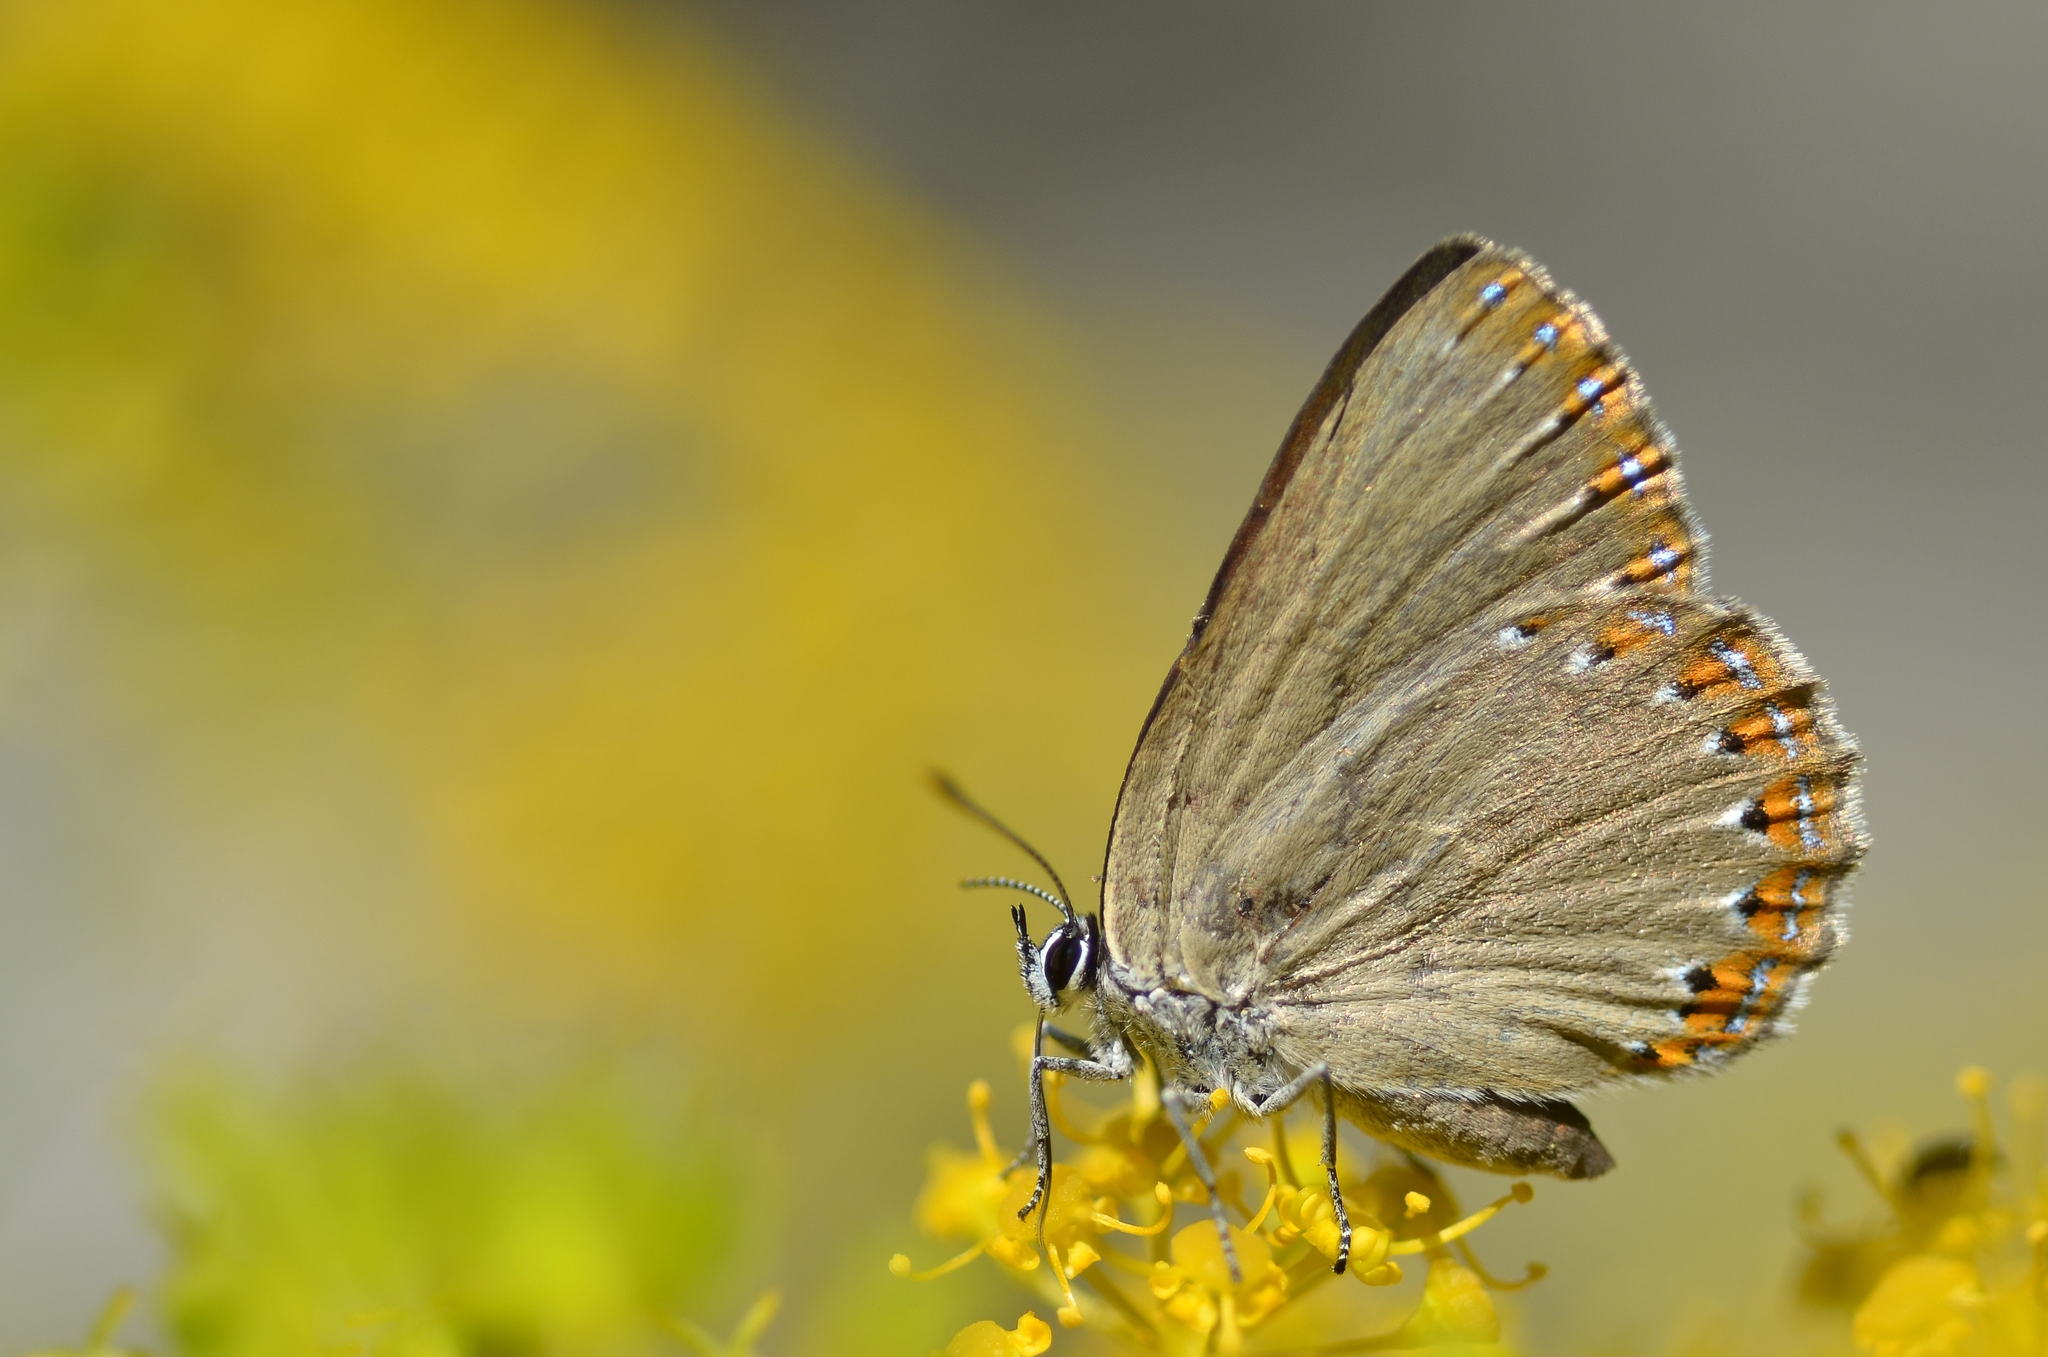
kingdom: Animalia
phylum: Arthropoda
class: Insecta
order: Lepidoptera
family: Lycaenidae
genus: Laeosopis
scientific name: Laeosopis roboris
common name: Spanish purple hairstreak
